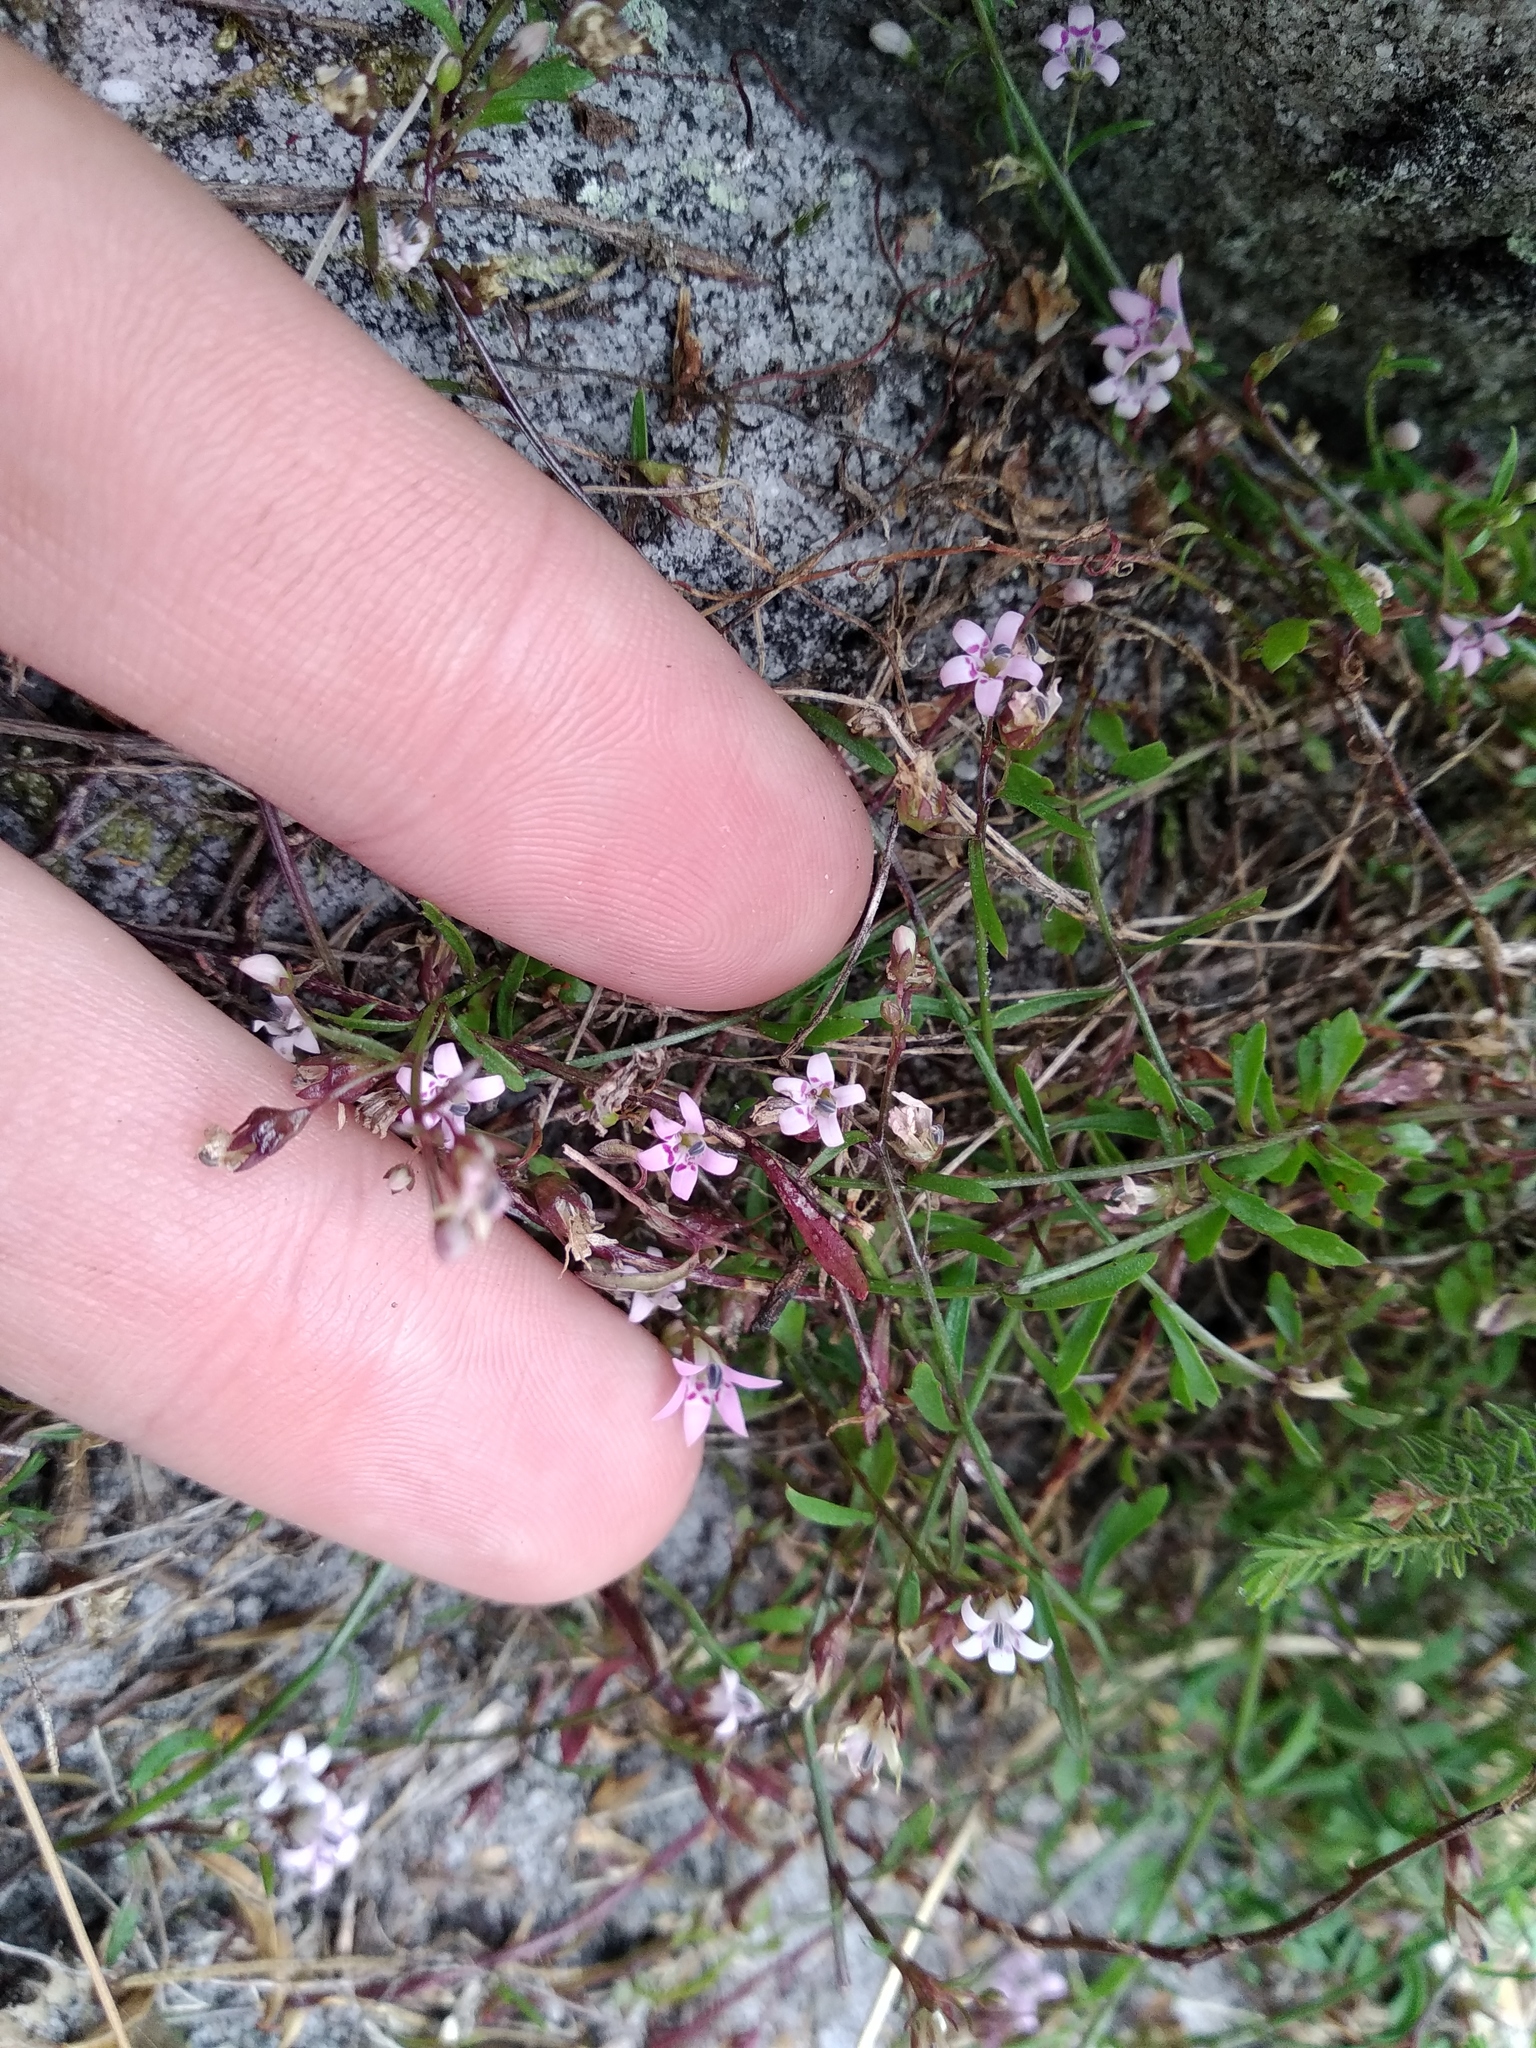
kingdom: Plantae
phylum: Tracheophyta
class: Magnoliopsida
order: Asterales
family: Campanulaceae
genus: Lobelia
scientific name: Lobelia eckloniana
